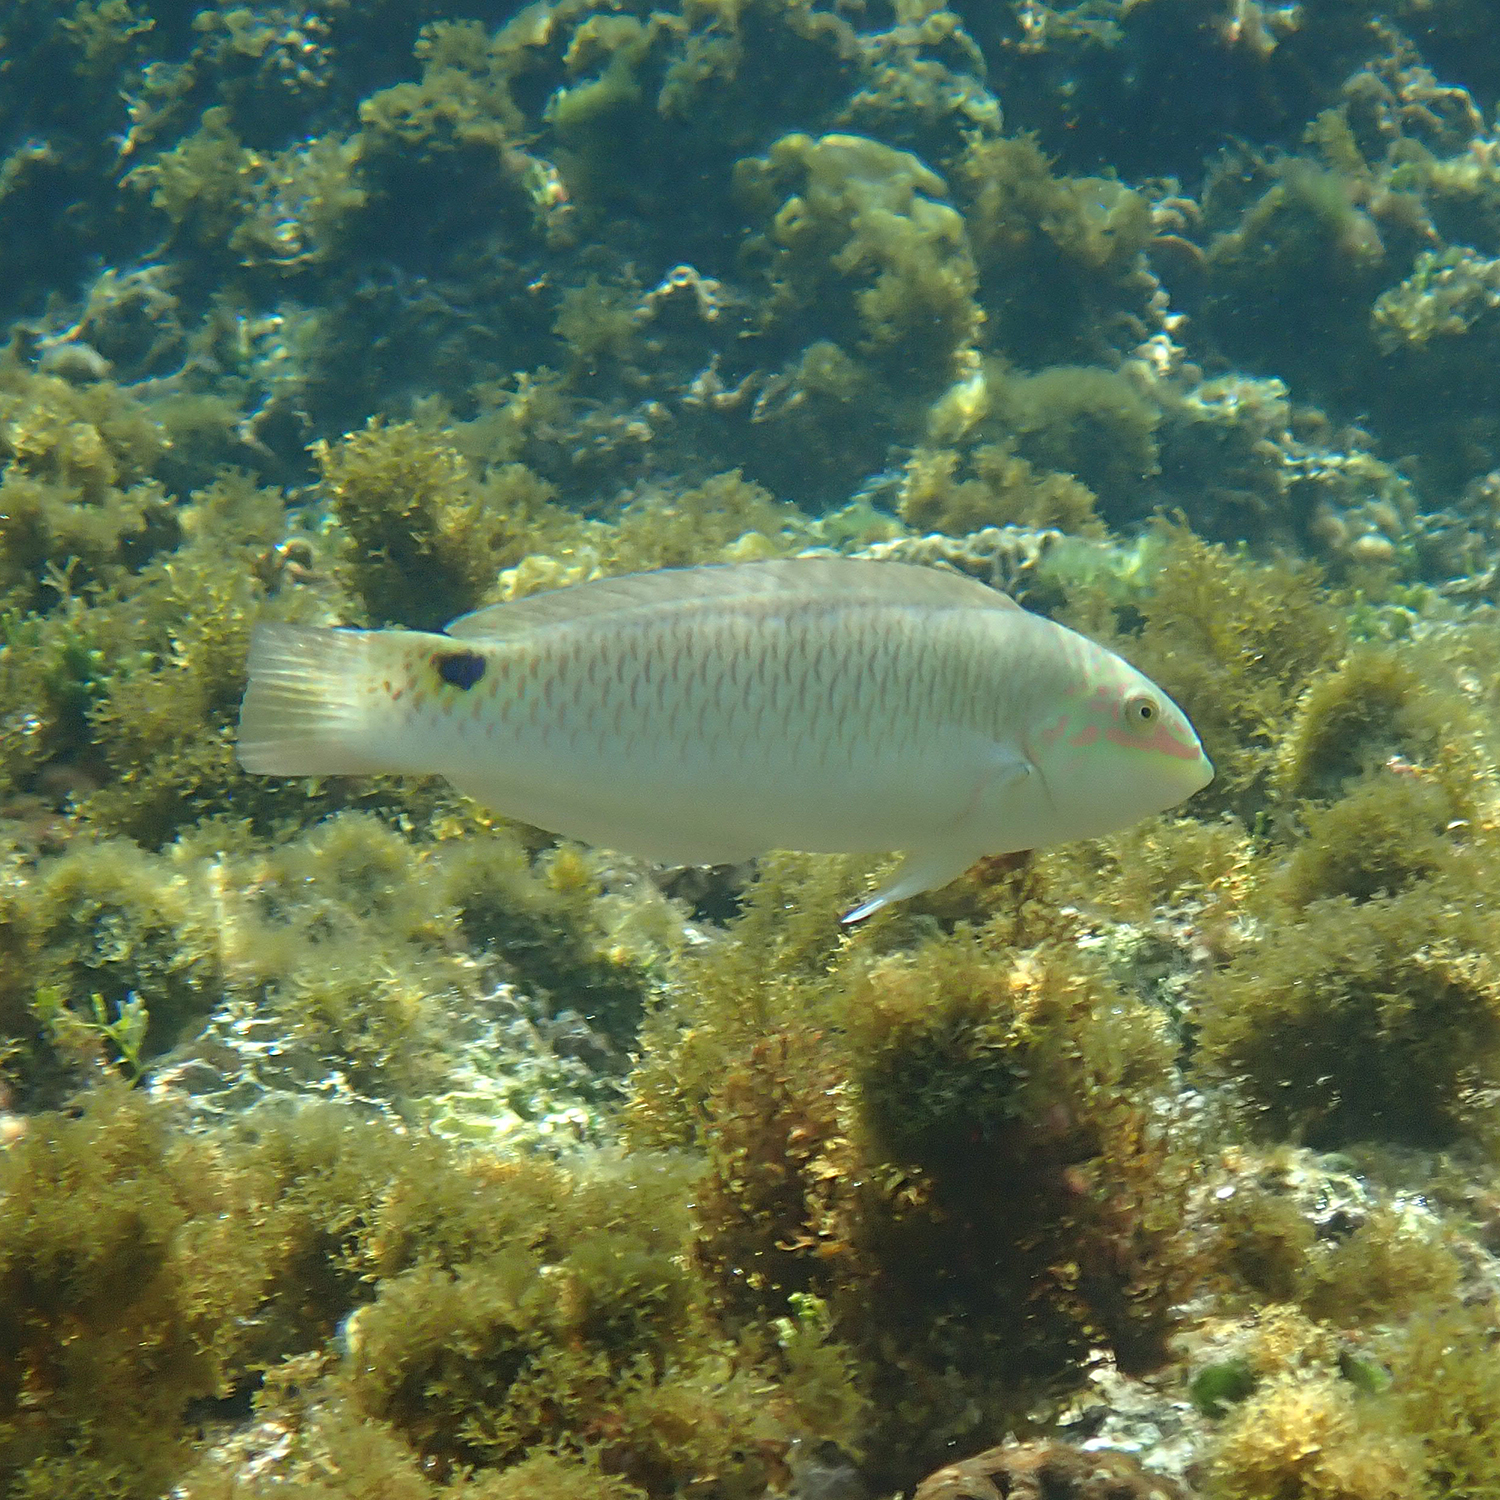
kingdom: Animalia
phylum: Chordata
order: Perciformes
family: Labridae
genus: Halichoeres
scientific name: Halichoeres trimaculatus
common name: Three-spot wrasse
